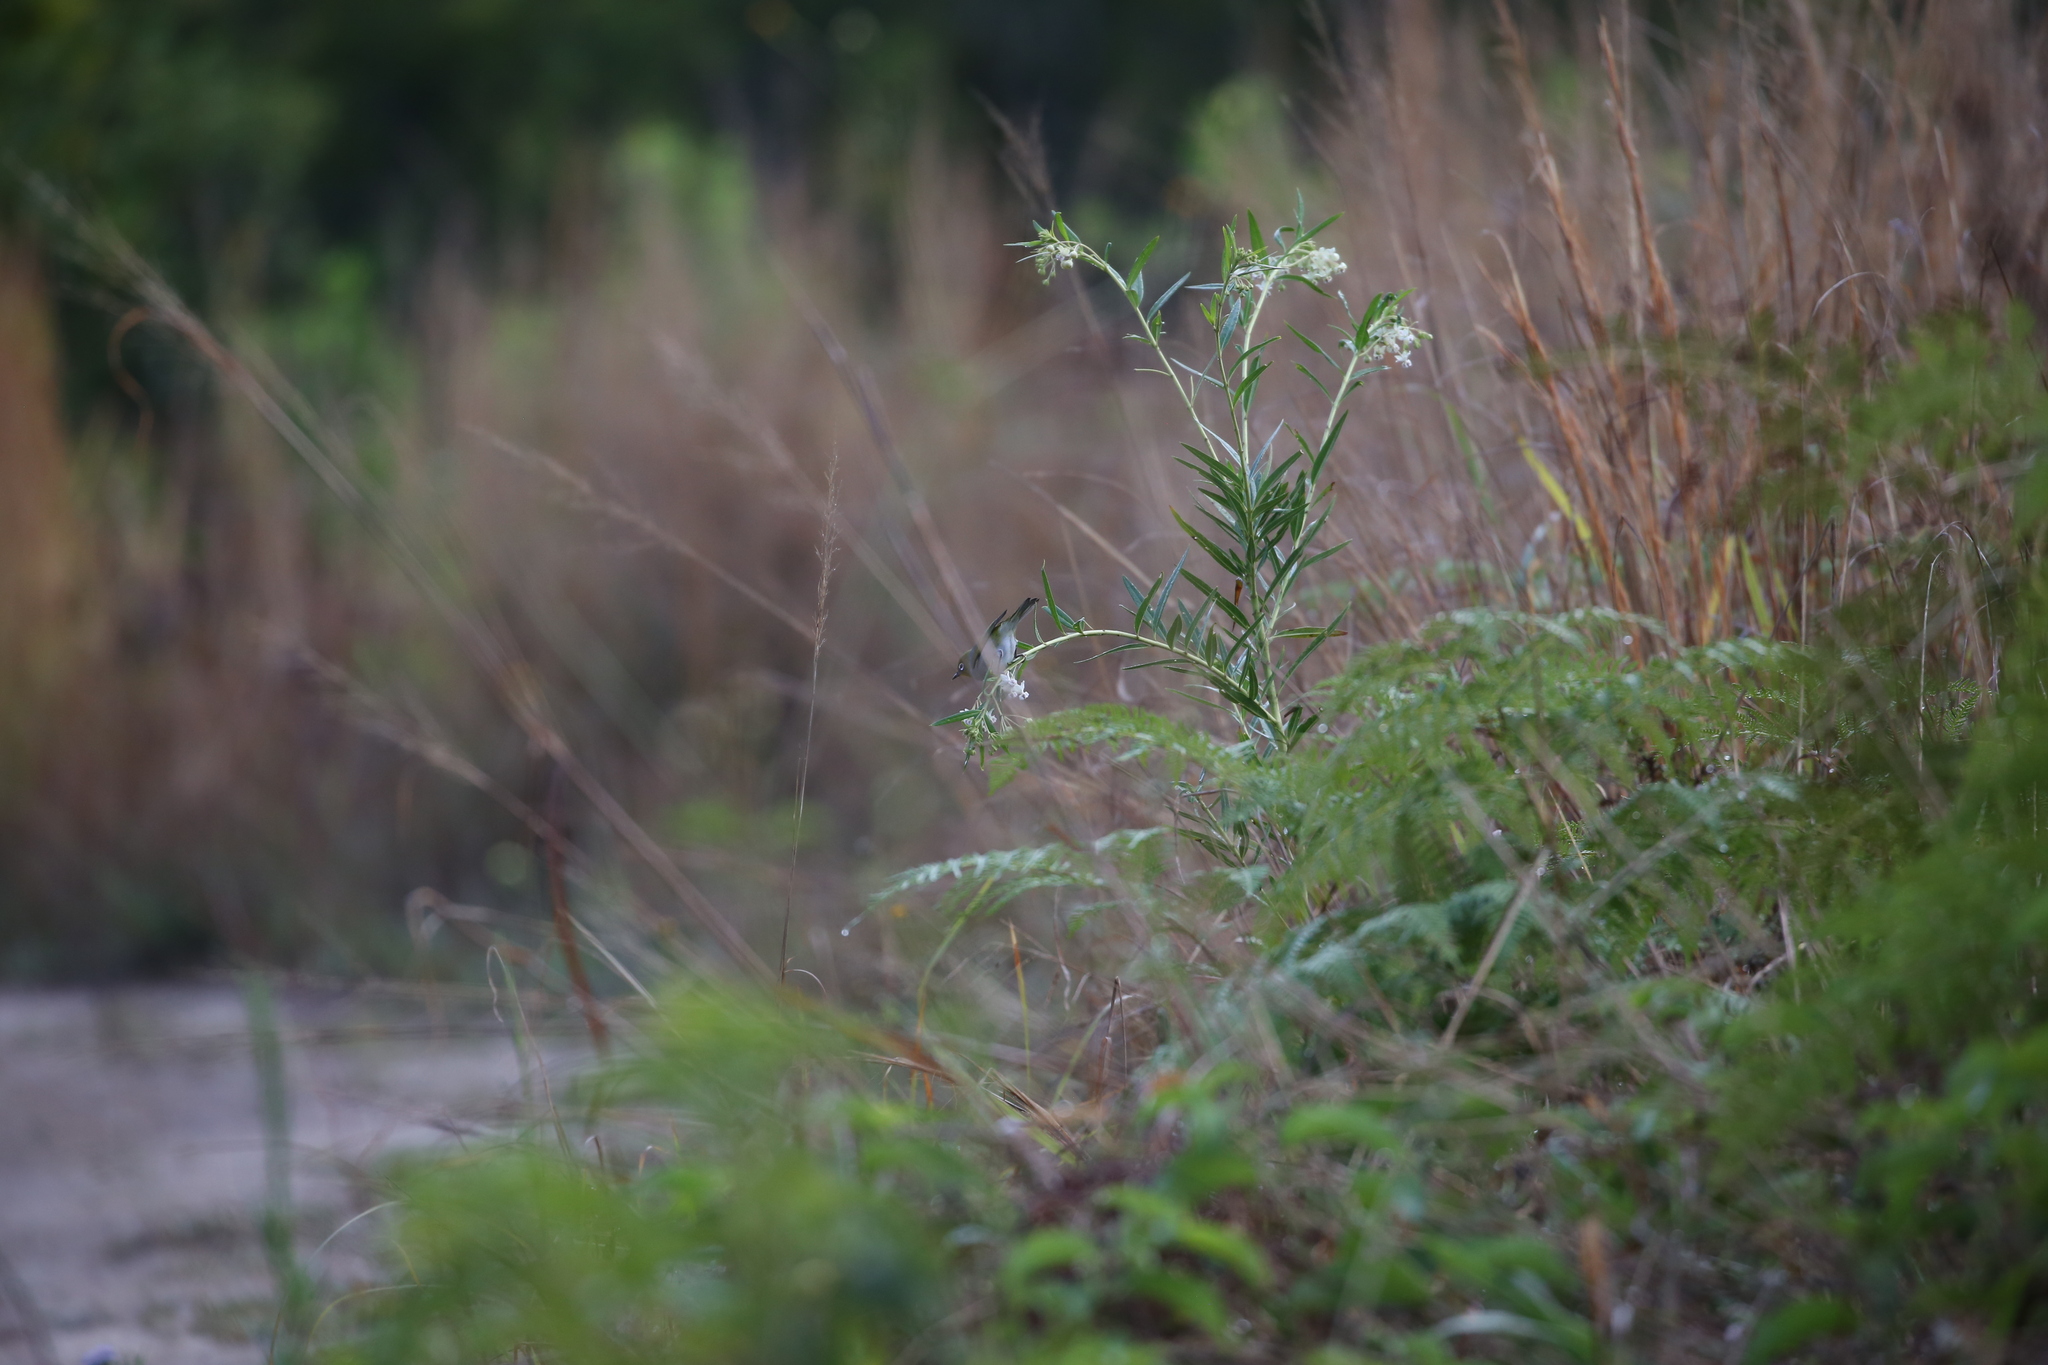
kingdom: Animalia
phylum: Chordata
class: Aves
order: Passeriformes
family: Zosteropidae
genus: Zosterops
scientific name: Zosterops lateralis
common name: Silvereye
